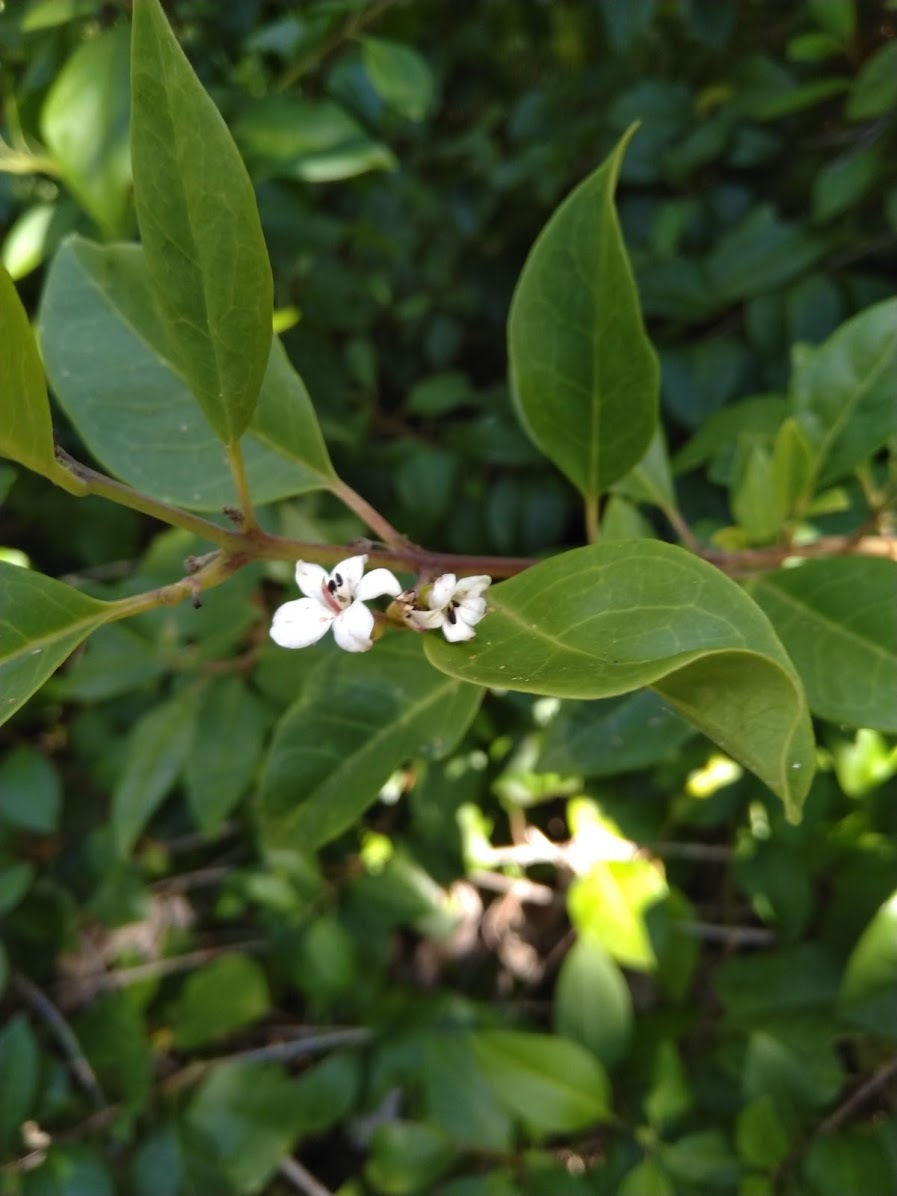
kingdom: Plantae
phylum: Tracheophyta
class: Magnoliopsida
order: Lamiales
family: Lamiaceae
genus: Volkameria
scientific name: Volkameria inermis
